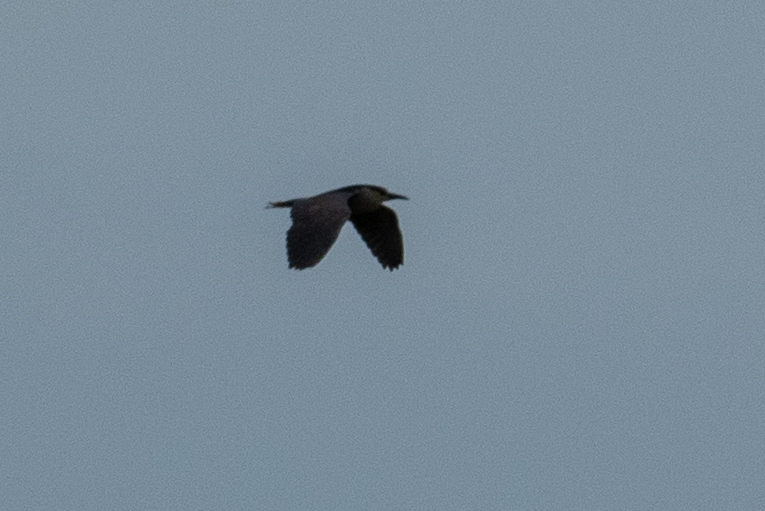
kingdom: Animalia
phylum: Chordata
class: Aves
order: Pelecaniformes
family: Ardeidae
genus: Nycticorax
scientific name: Nycticorax nycticorax
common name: Black-crowned night heron
